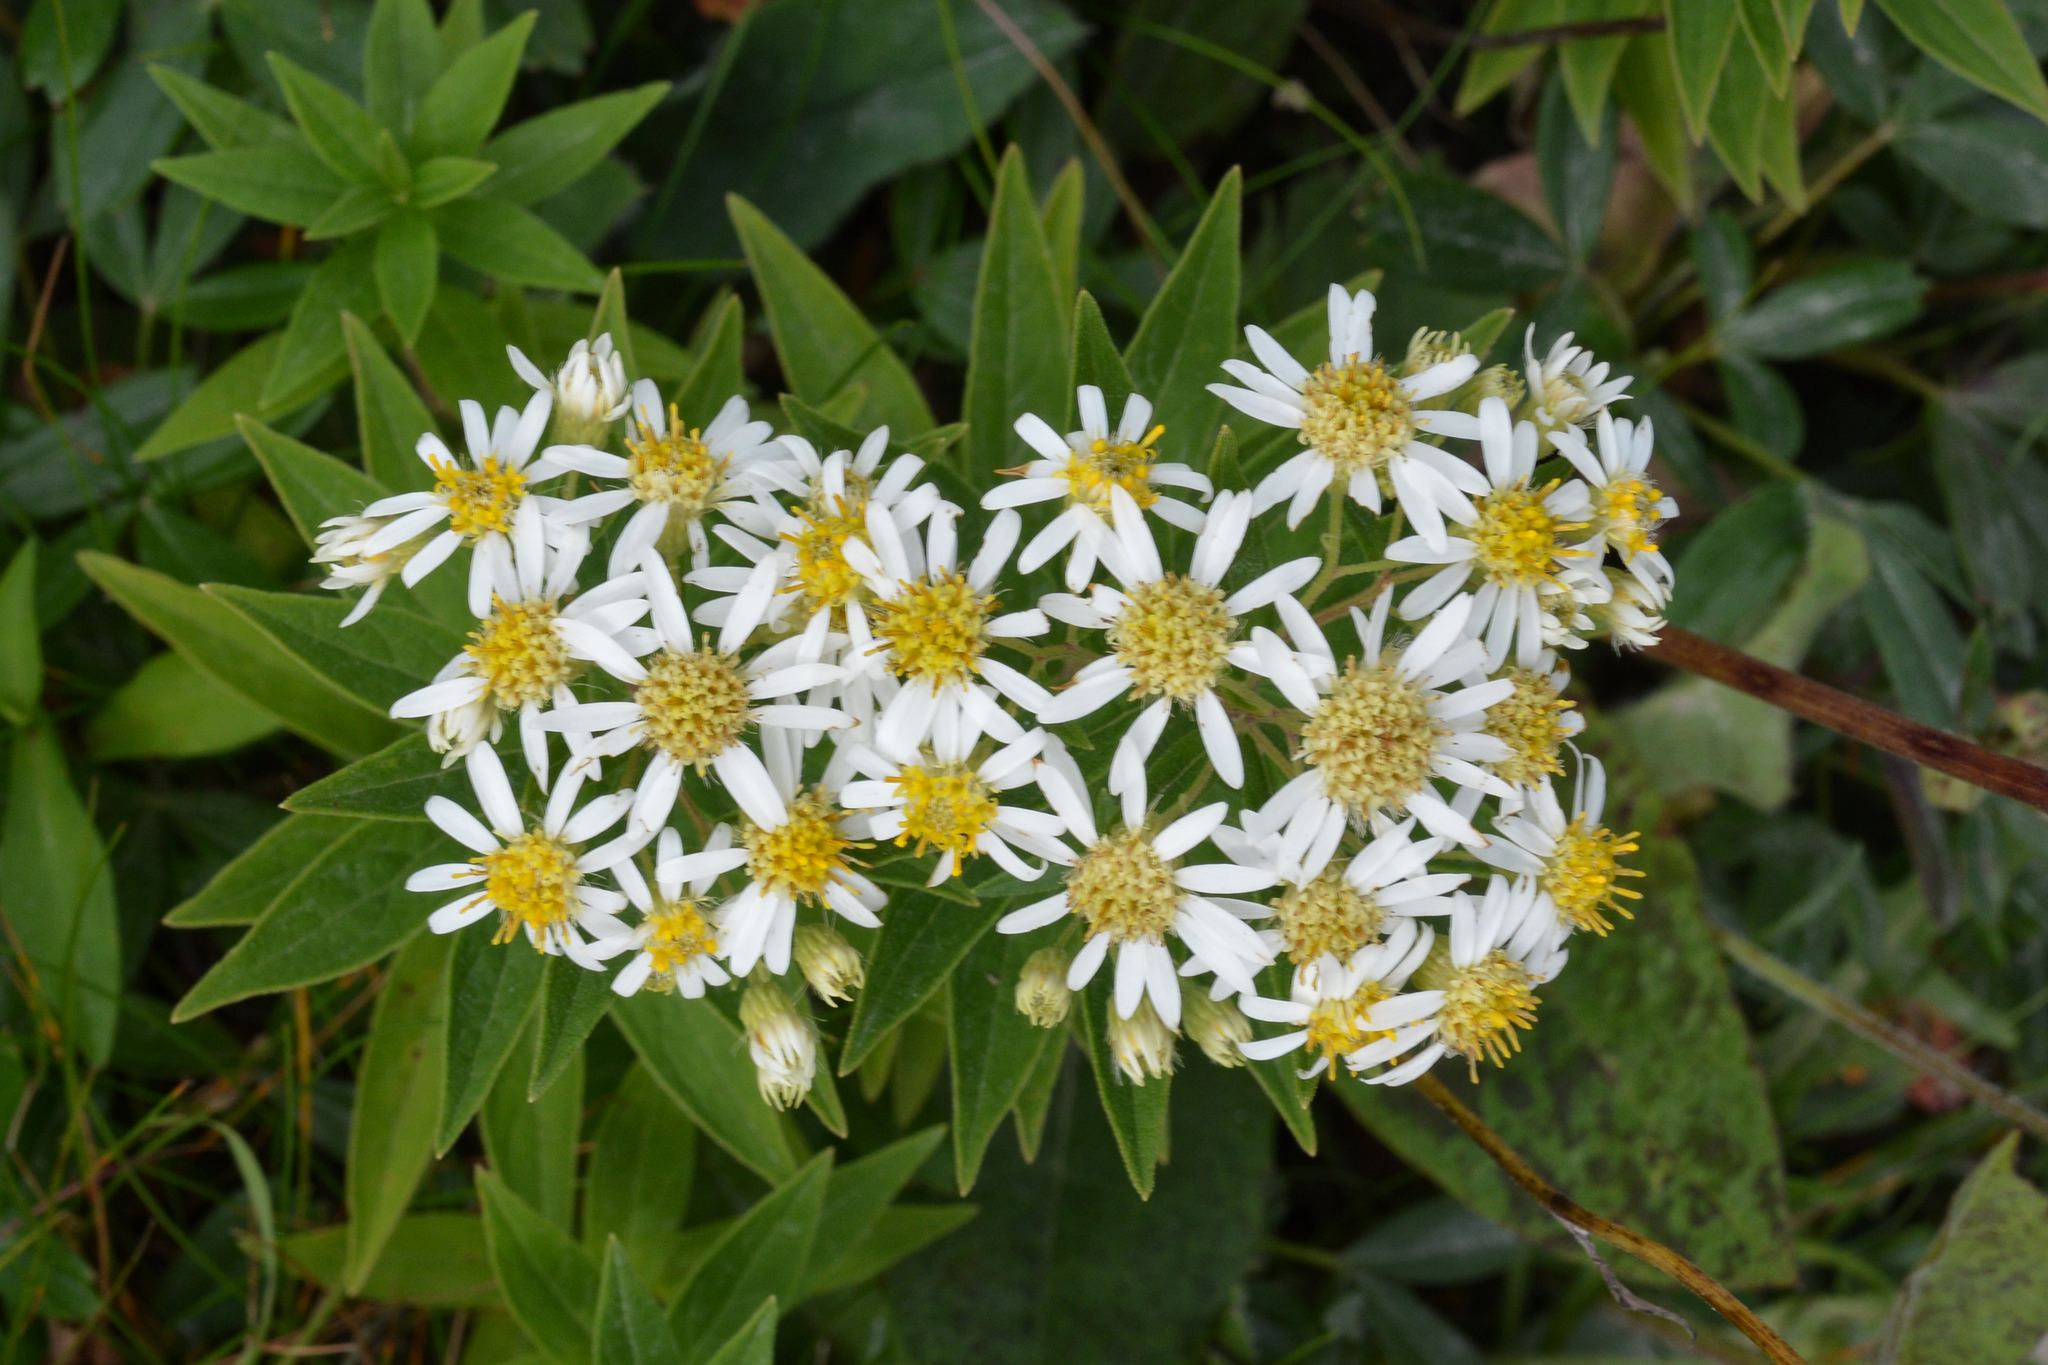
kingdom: Plantae
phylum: Tracheophyta
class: Magnoliopsida
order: Asterales
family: Asteraceae
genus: Doellingeria
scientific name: Doellingeria umbellata
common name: Flat-top white aster
